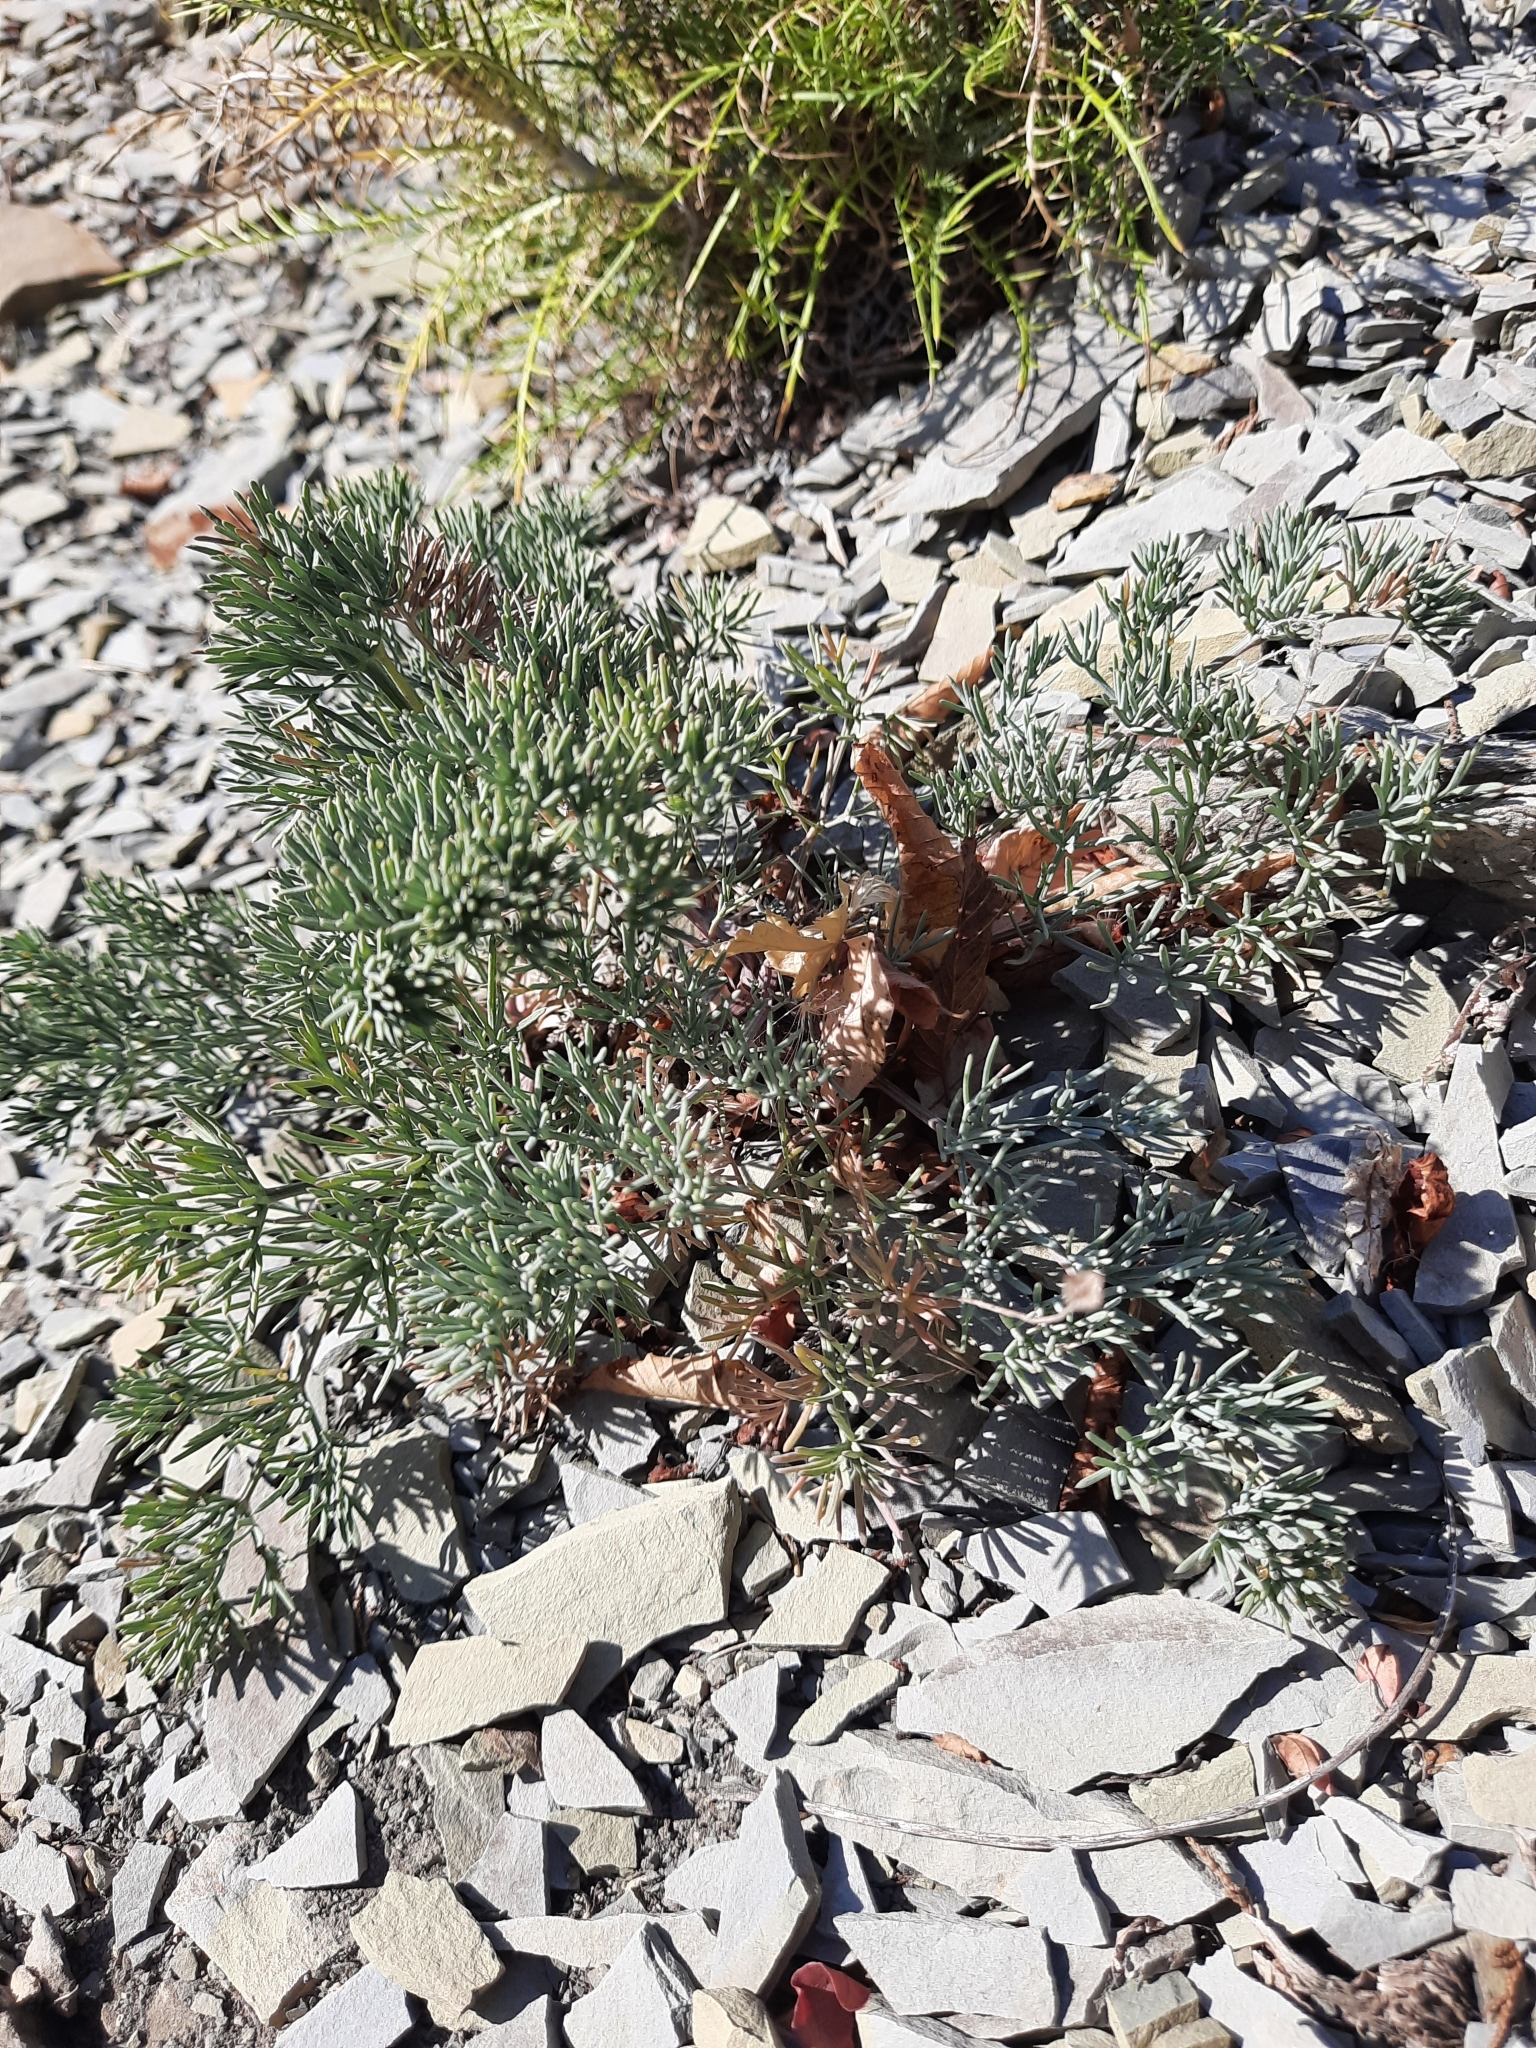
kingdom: Plantae
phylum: Tracheophyta
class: Magnoliopsida
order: Apiales
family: Apiaceae
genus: Seseli
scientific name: Seseli ponticum
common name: Pontic seseli
